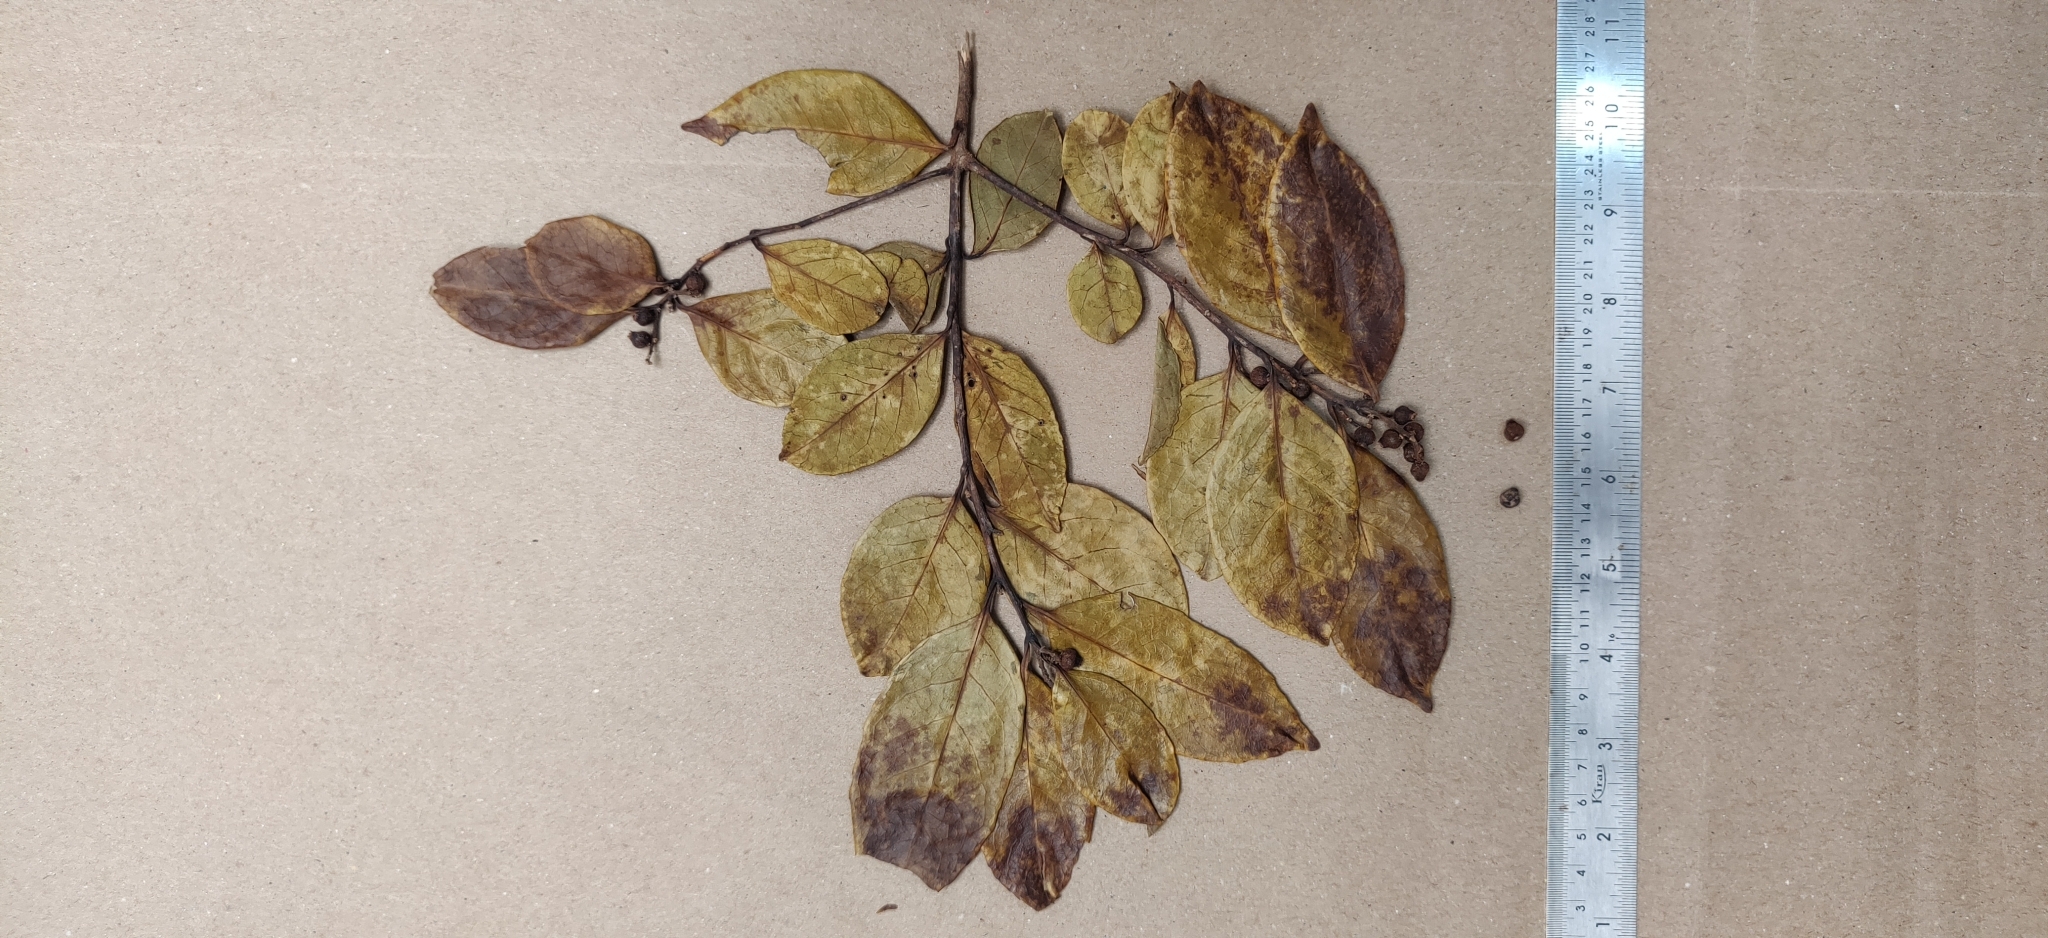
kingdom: Plantae
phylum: Tracheophyta
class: Magnoliopsida
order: Ericales
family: Symplocaceae
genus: Symplocos
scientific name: Symplocos cochinchinensis
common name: Buff hazelwood
